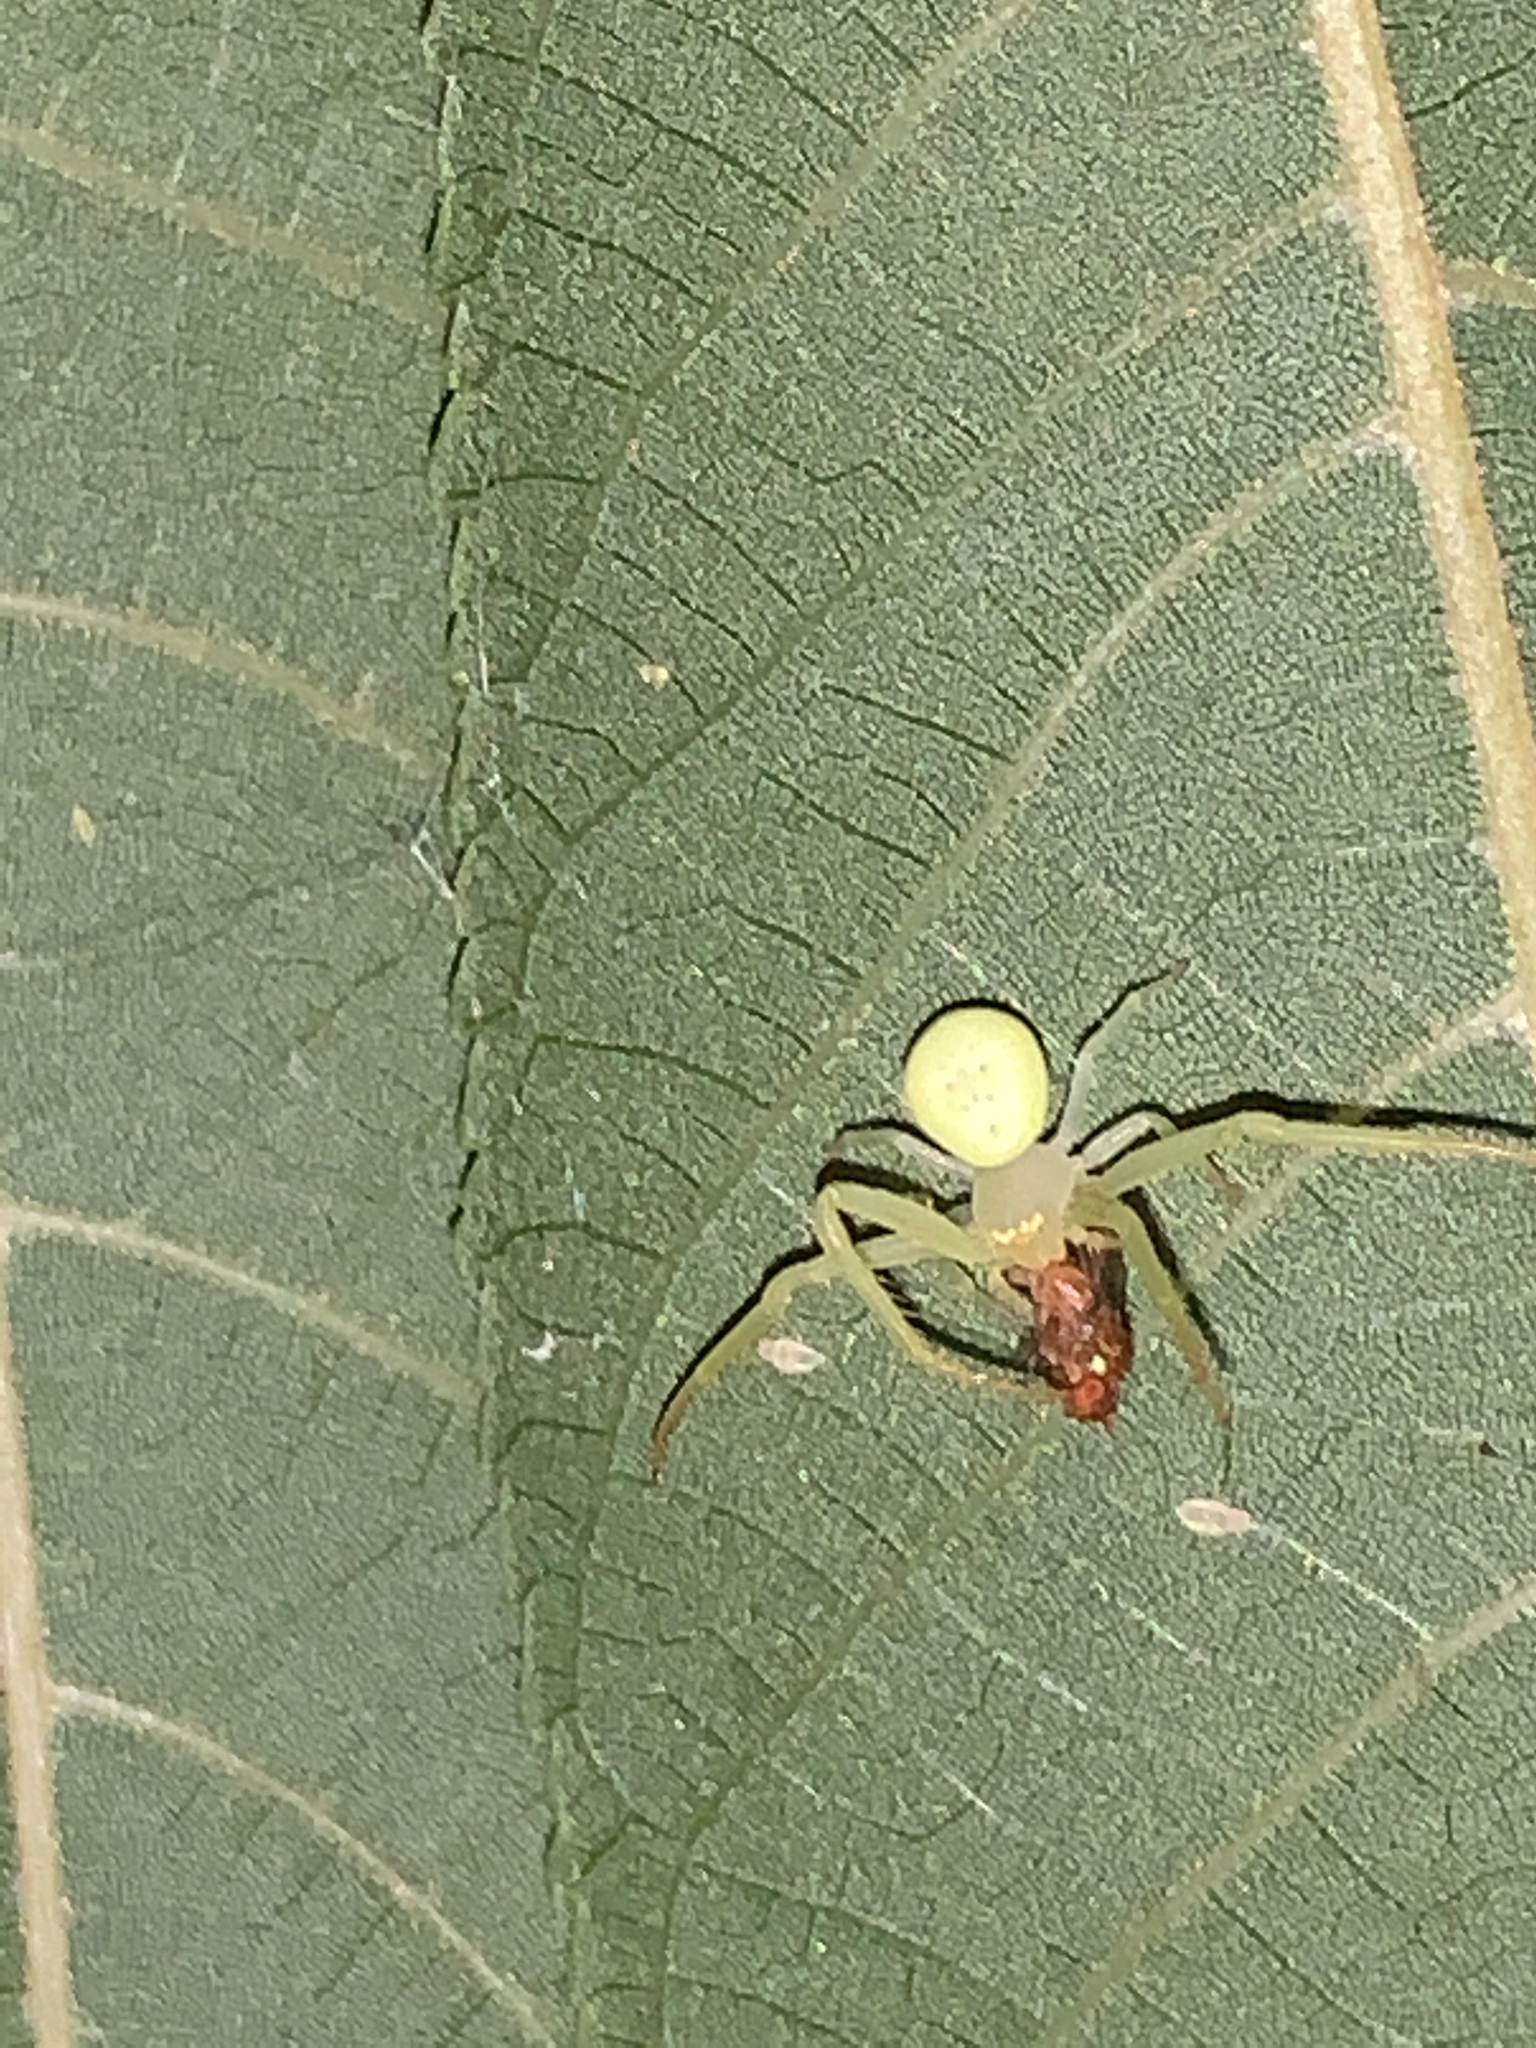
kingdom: Animalia
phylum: Arthropoda
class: Arachnida
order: Araneae
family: Thomisidae
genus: Misumessus
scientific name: Misumessus oblongus
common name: American green crab spider
